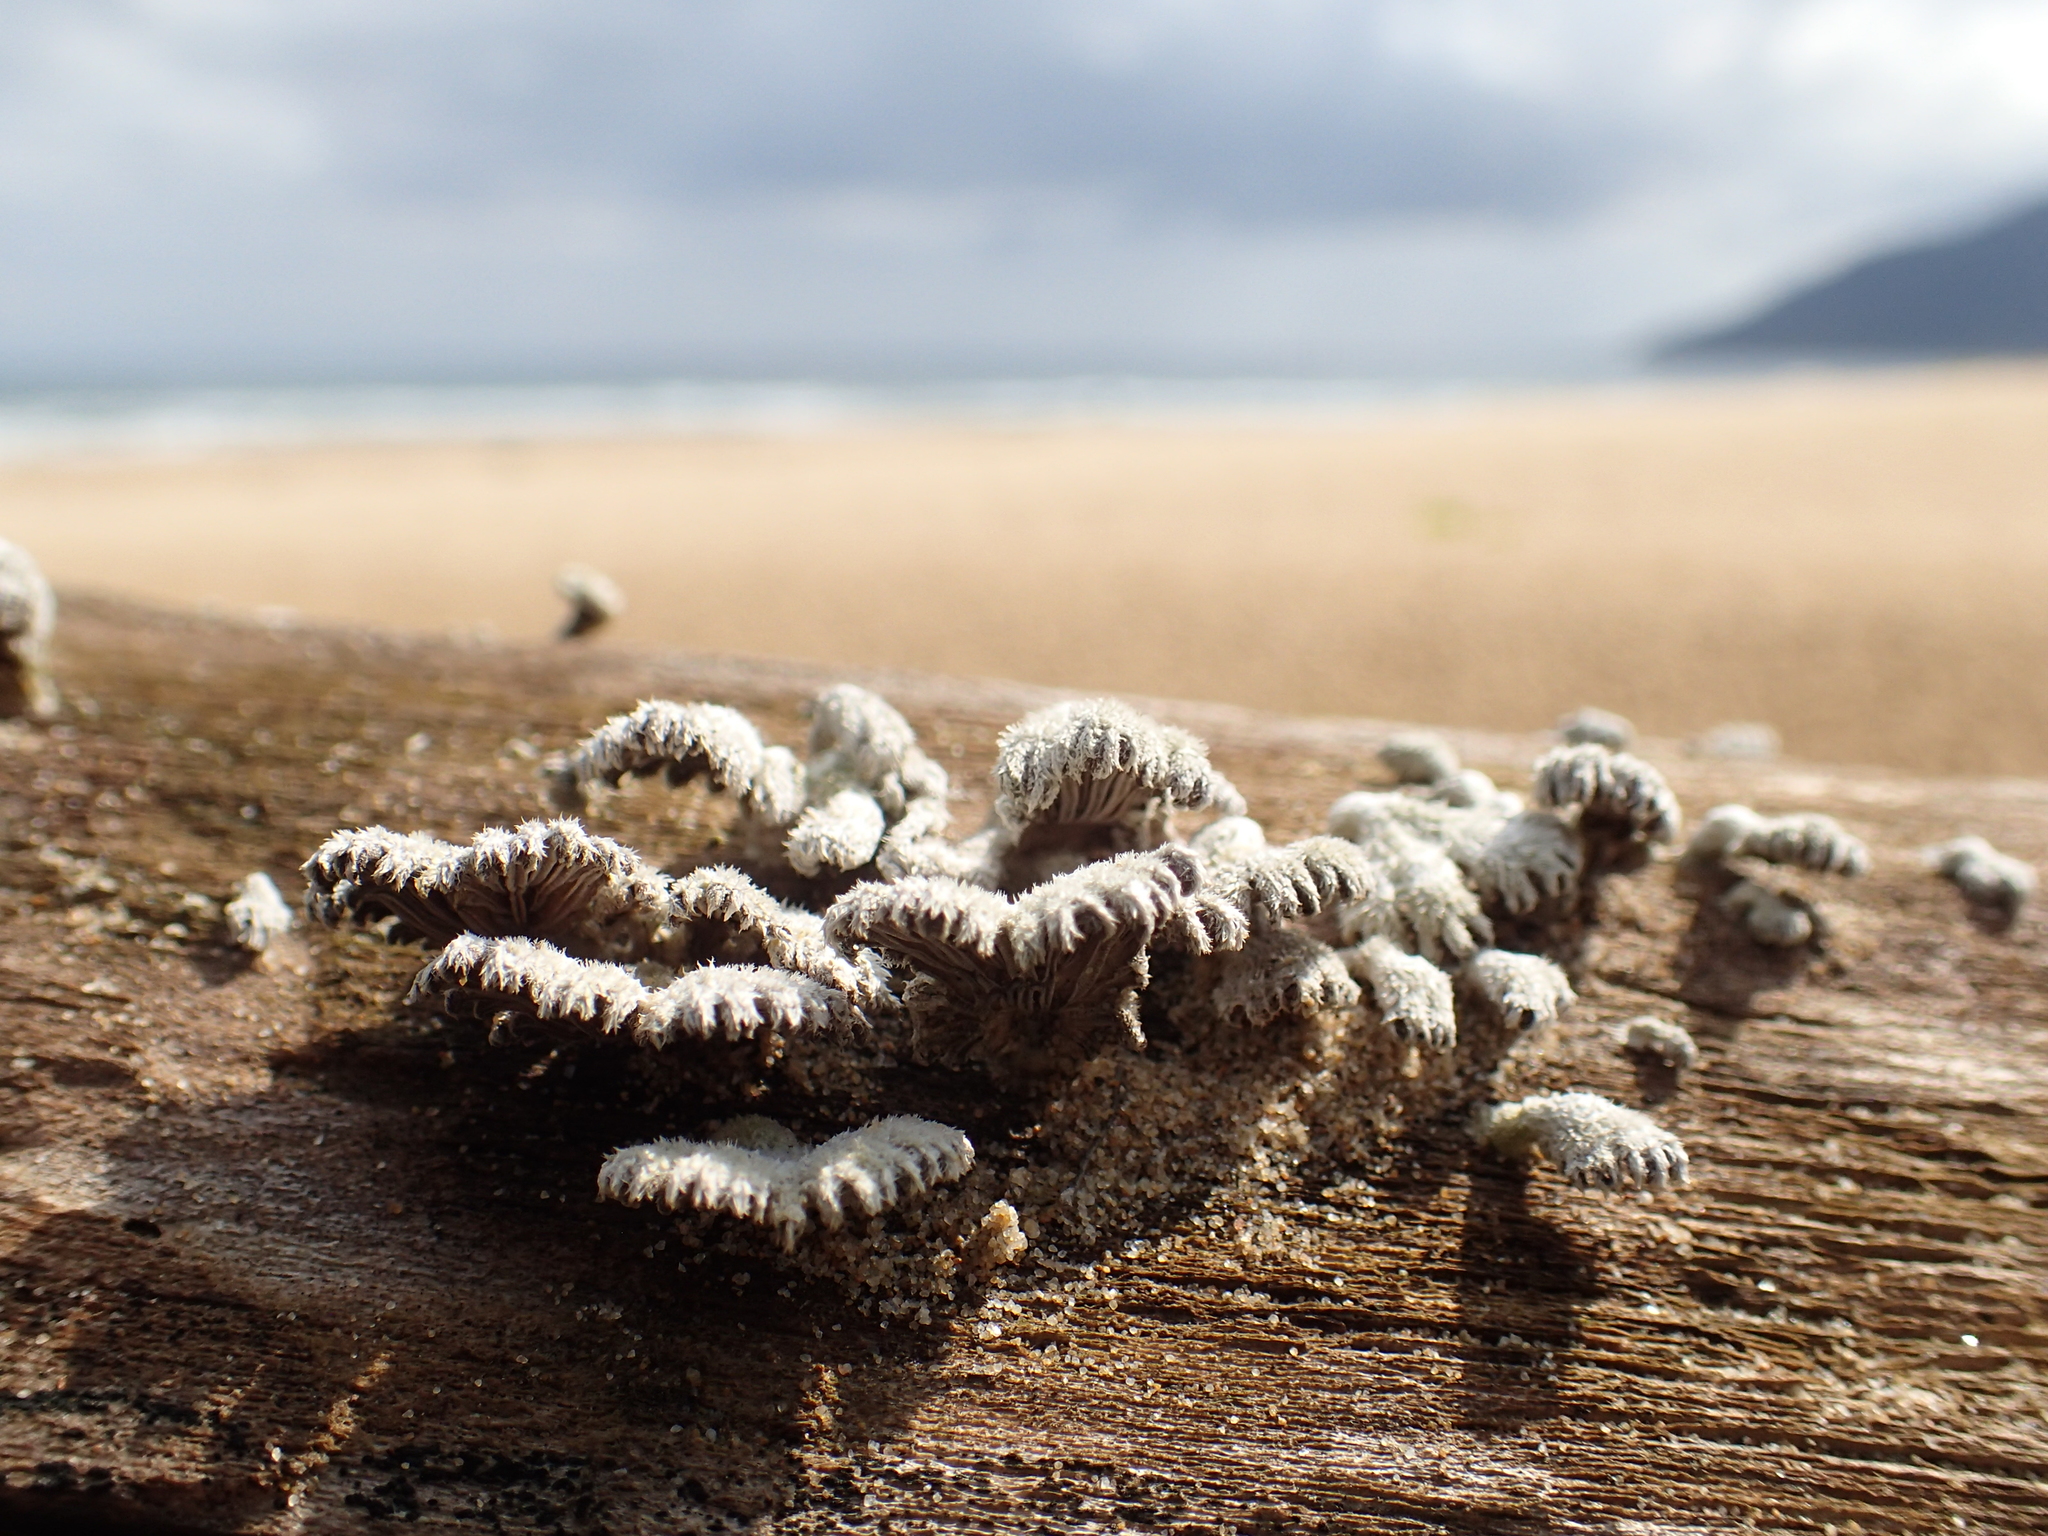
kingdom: Fungi
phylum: Basidiomycota
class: Agaricomycetes
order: Agaricales
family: Schizophyllaceae
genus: Schizophyllum
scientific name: Schizophyllum commune
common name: Common porecrust
